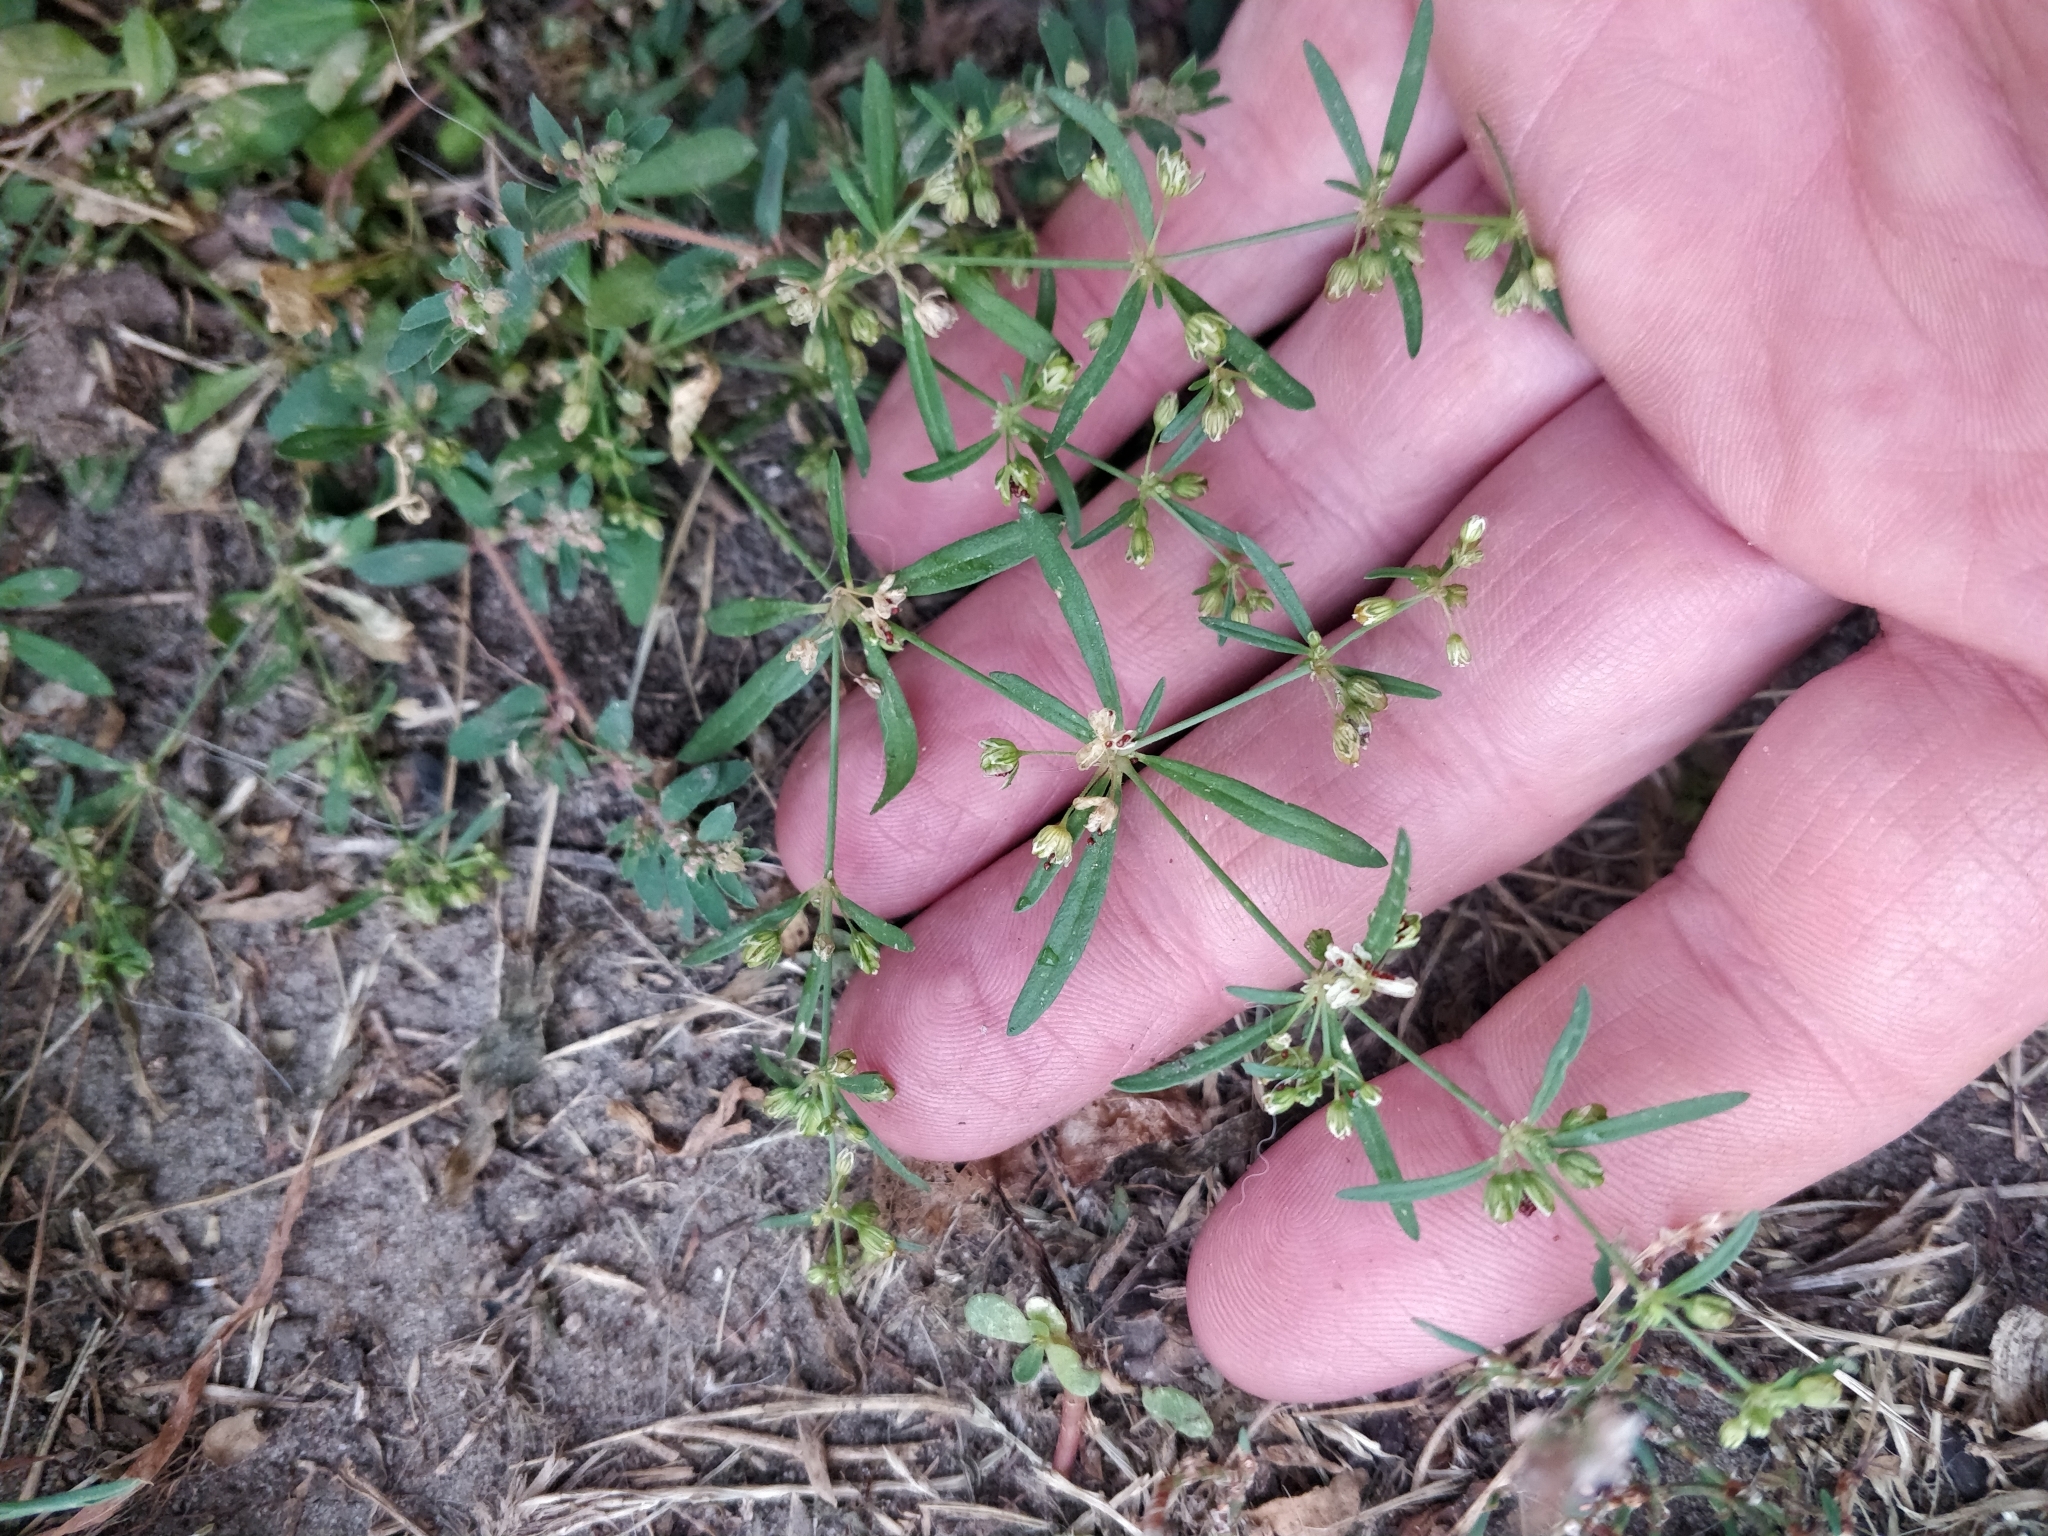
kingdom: Plantae
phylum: Tracheophyta
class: Magnoliopsida
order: Caryophyllales
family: Molluginaceae
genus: Mollugo
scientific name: Mollugo verticillata
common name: Green carpetweed
